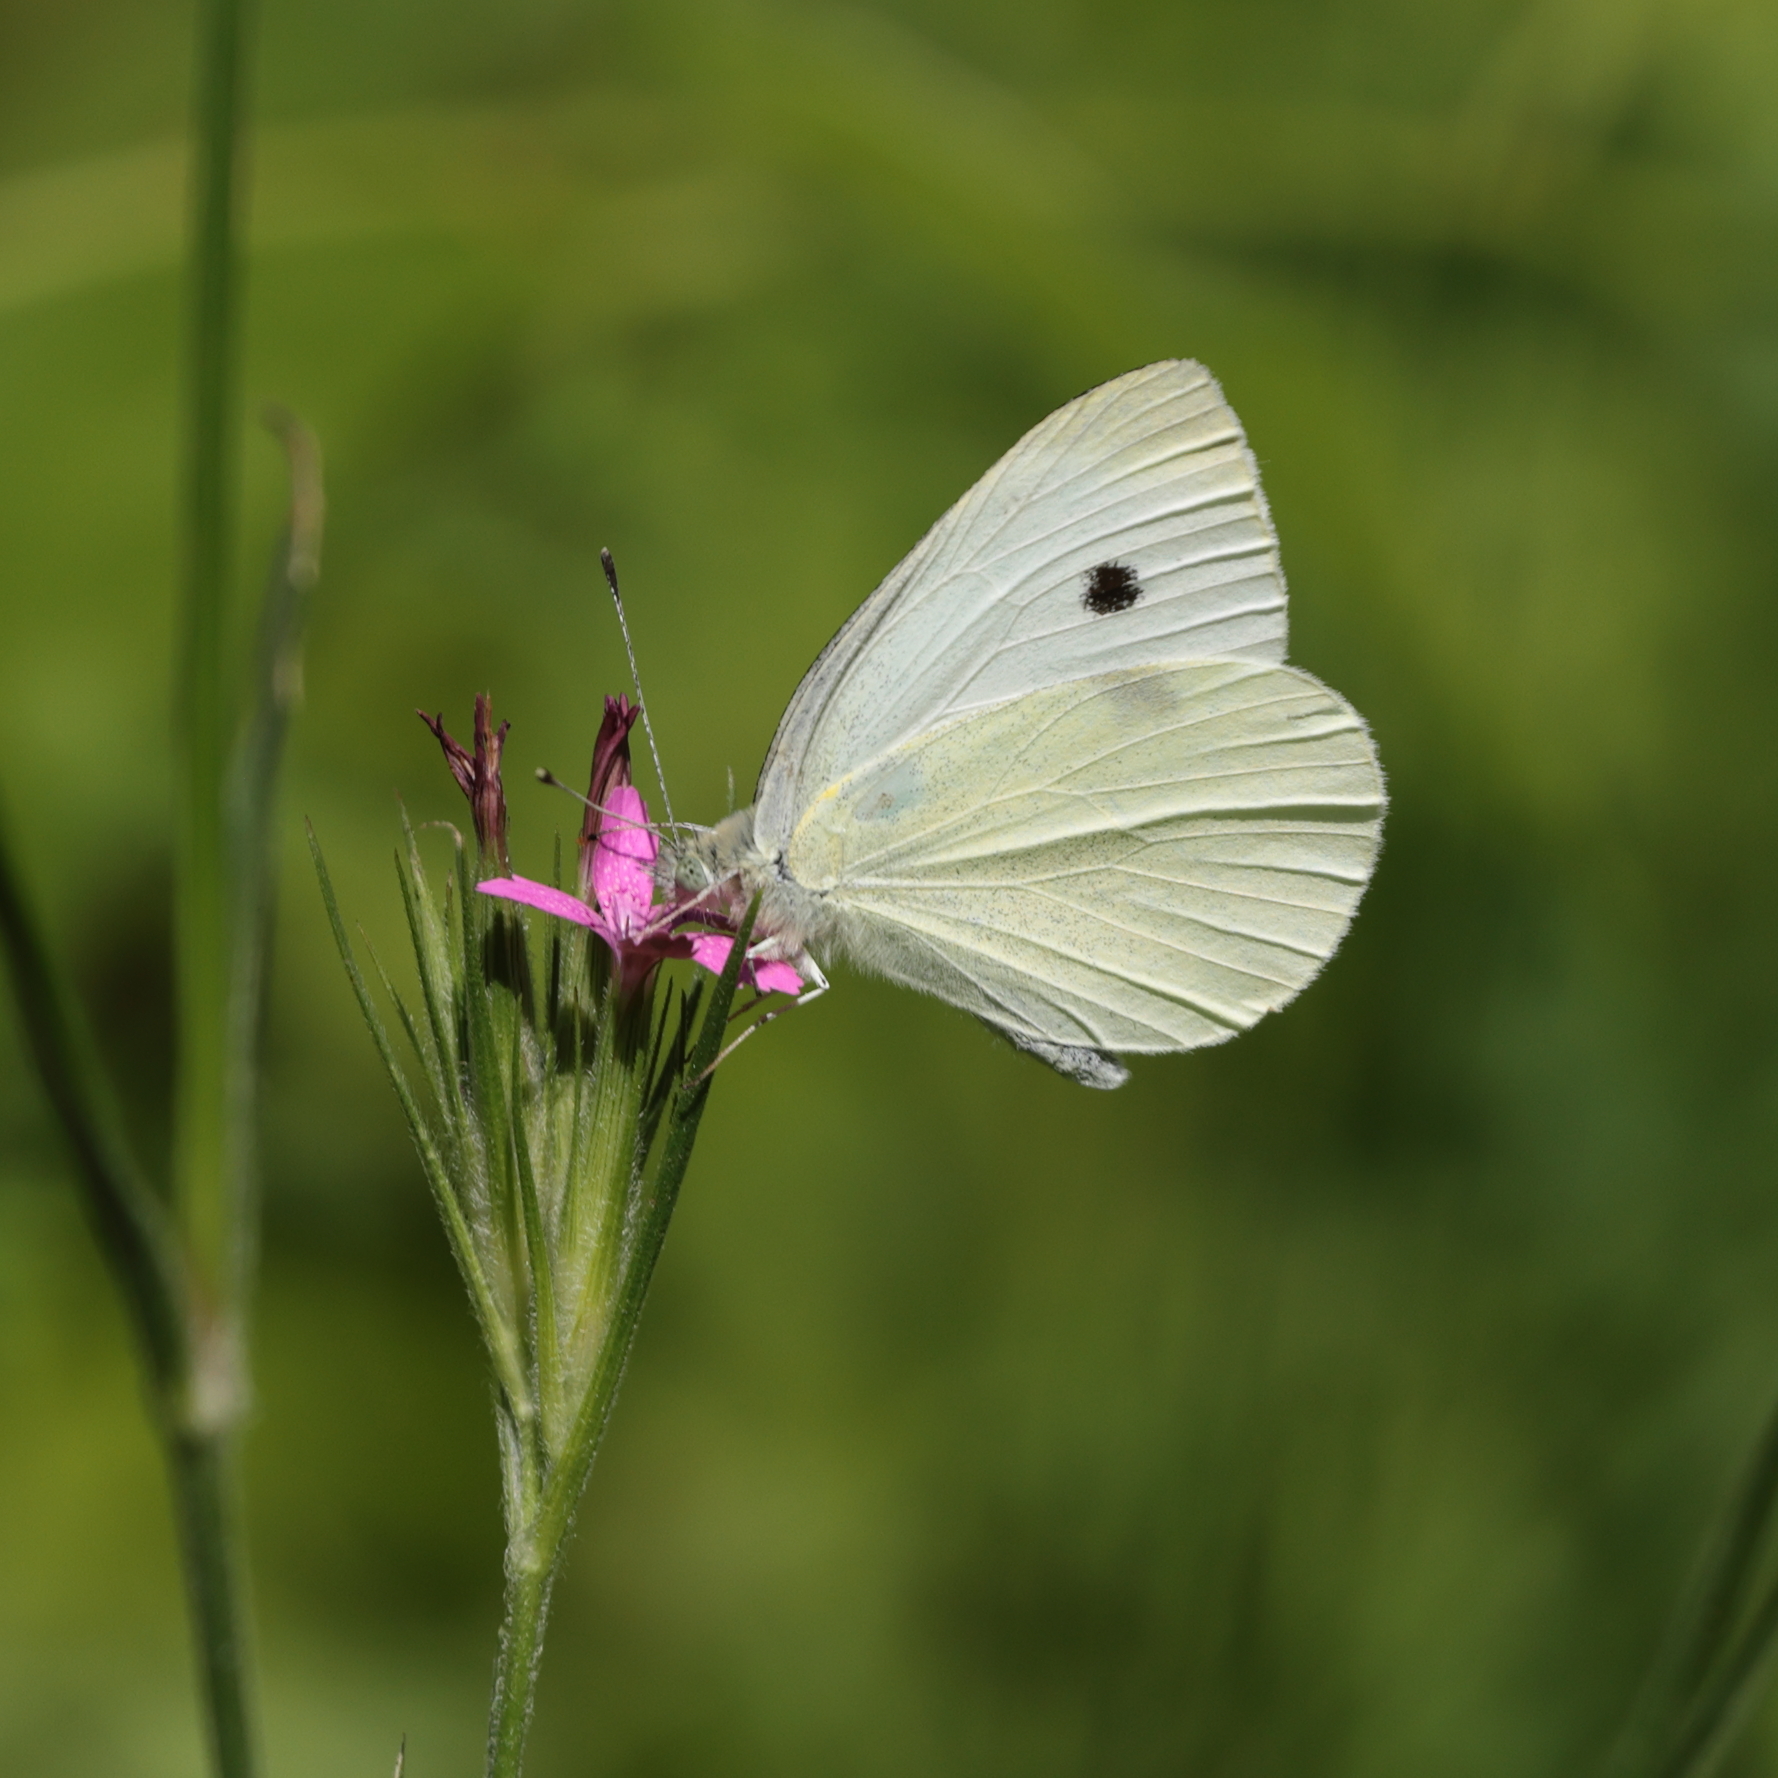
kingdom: Animalia
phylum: Arthropoda
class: Insecta
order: Lepidoptera
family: Pieridae
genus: Pieris
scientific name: Pieris rapae
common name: Small white
